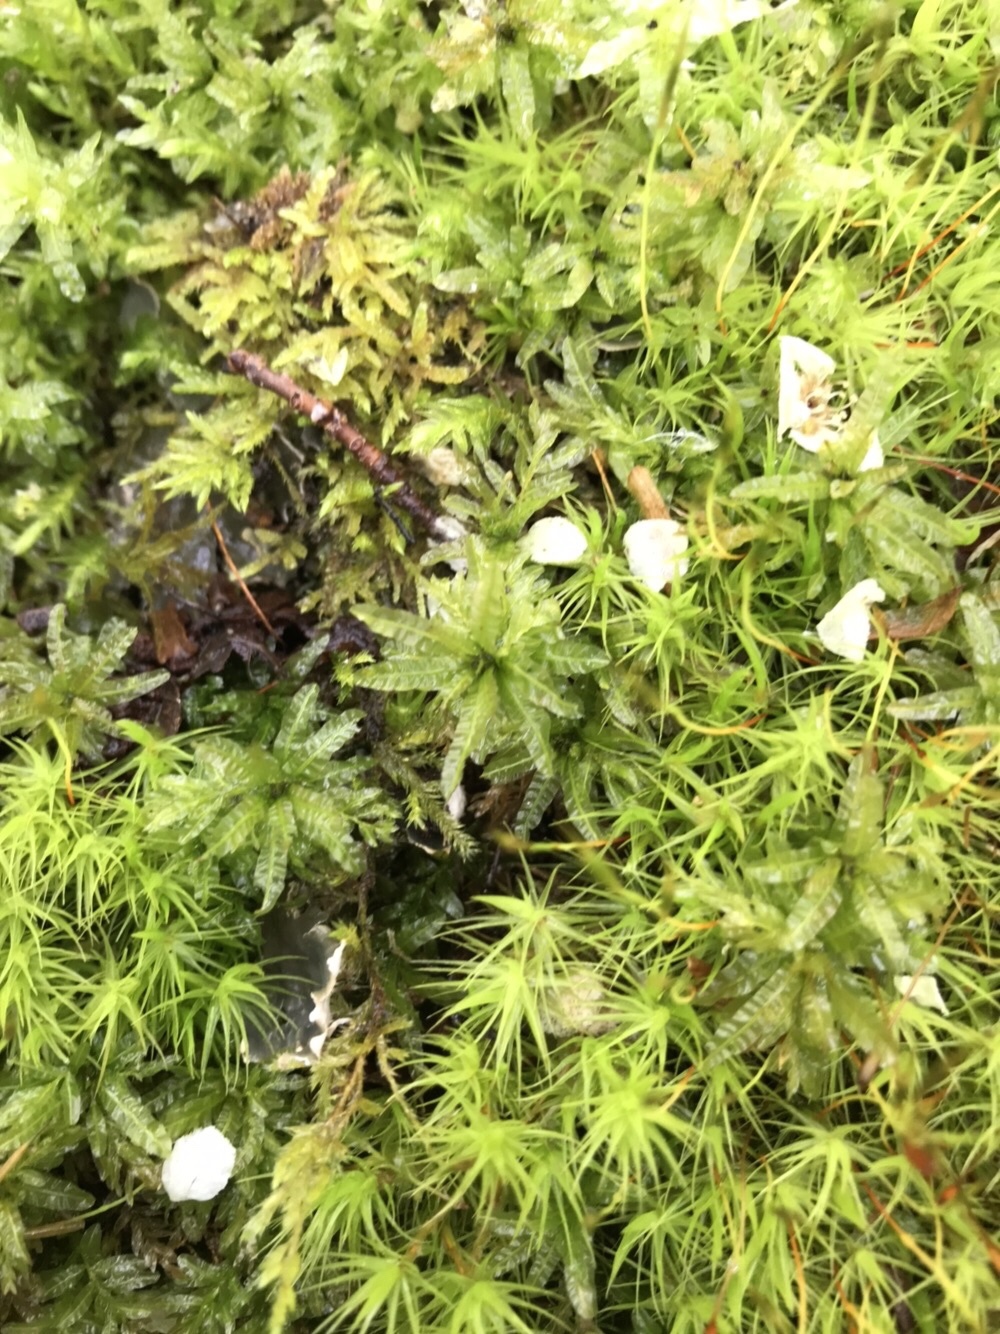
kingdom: Plantae
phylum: Bryophyta
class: Bryopsida
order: Bryales
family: Mniaceae
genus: Plagiomnium
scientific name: Plagiomnium undulatum
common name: Hart's-tongue thyme-moss
